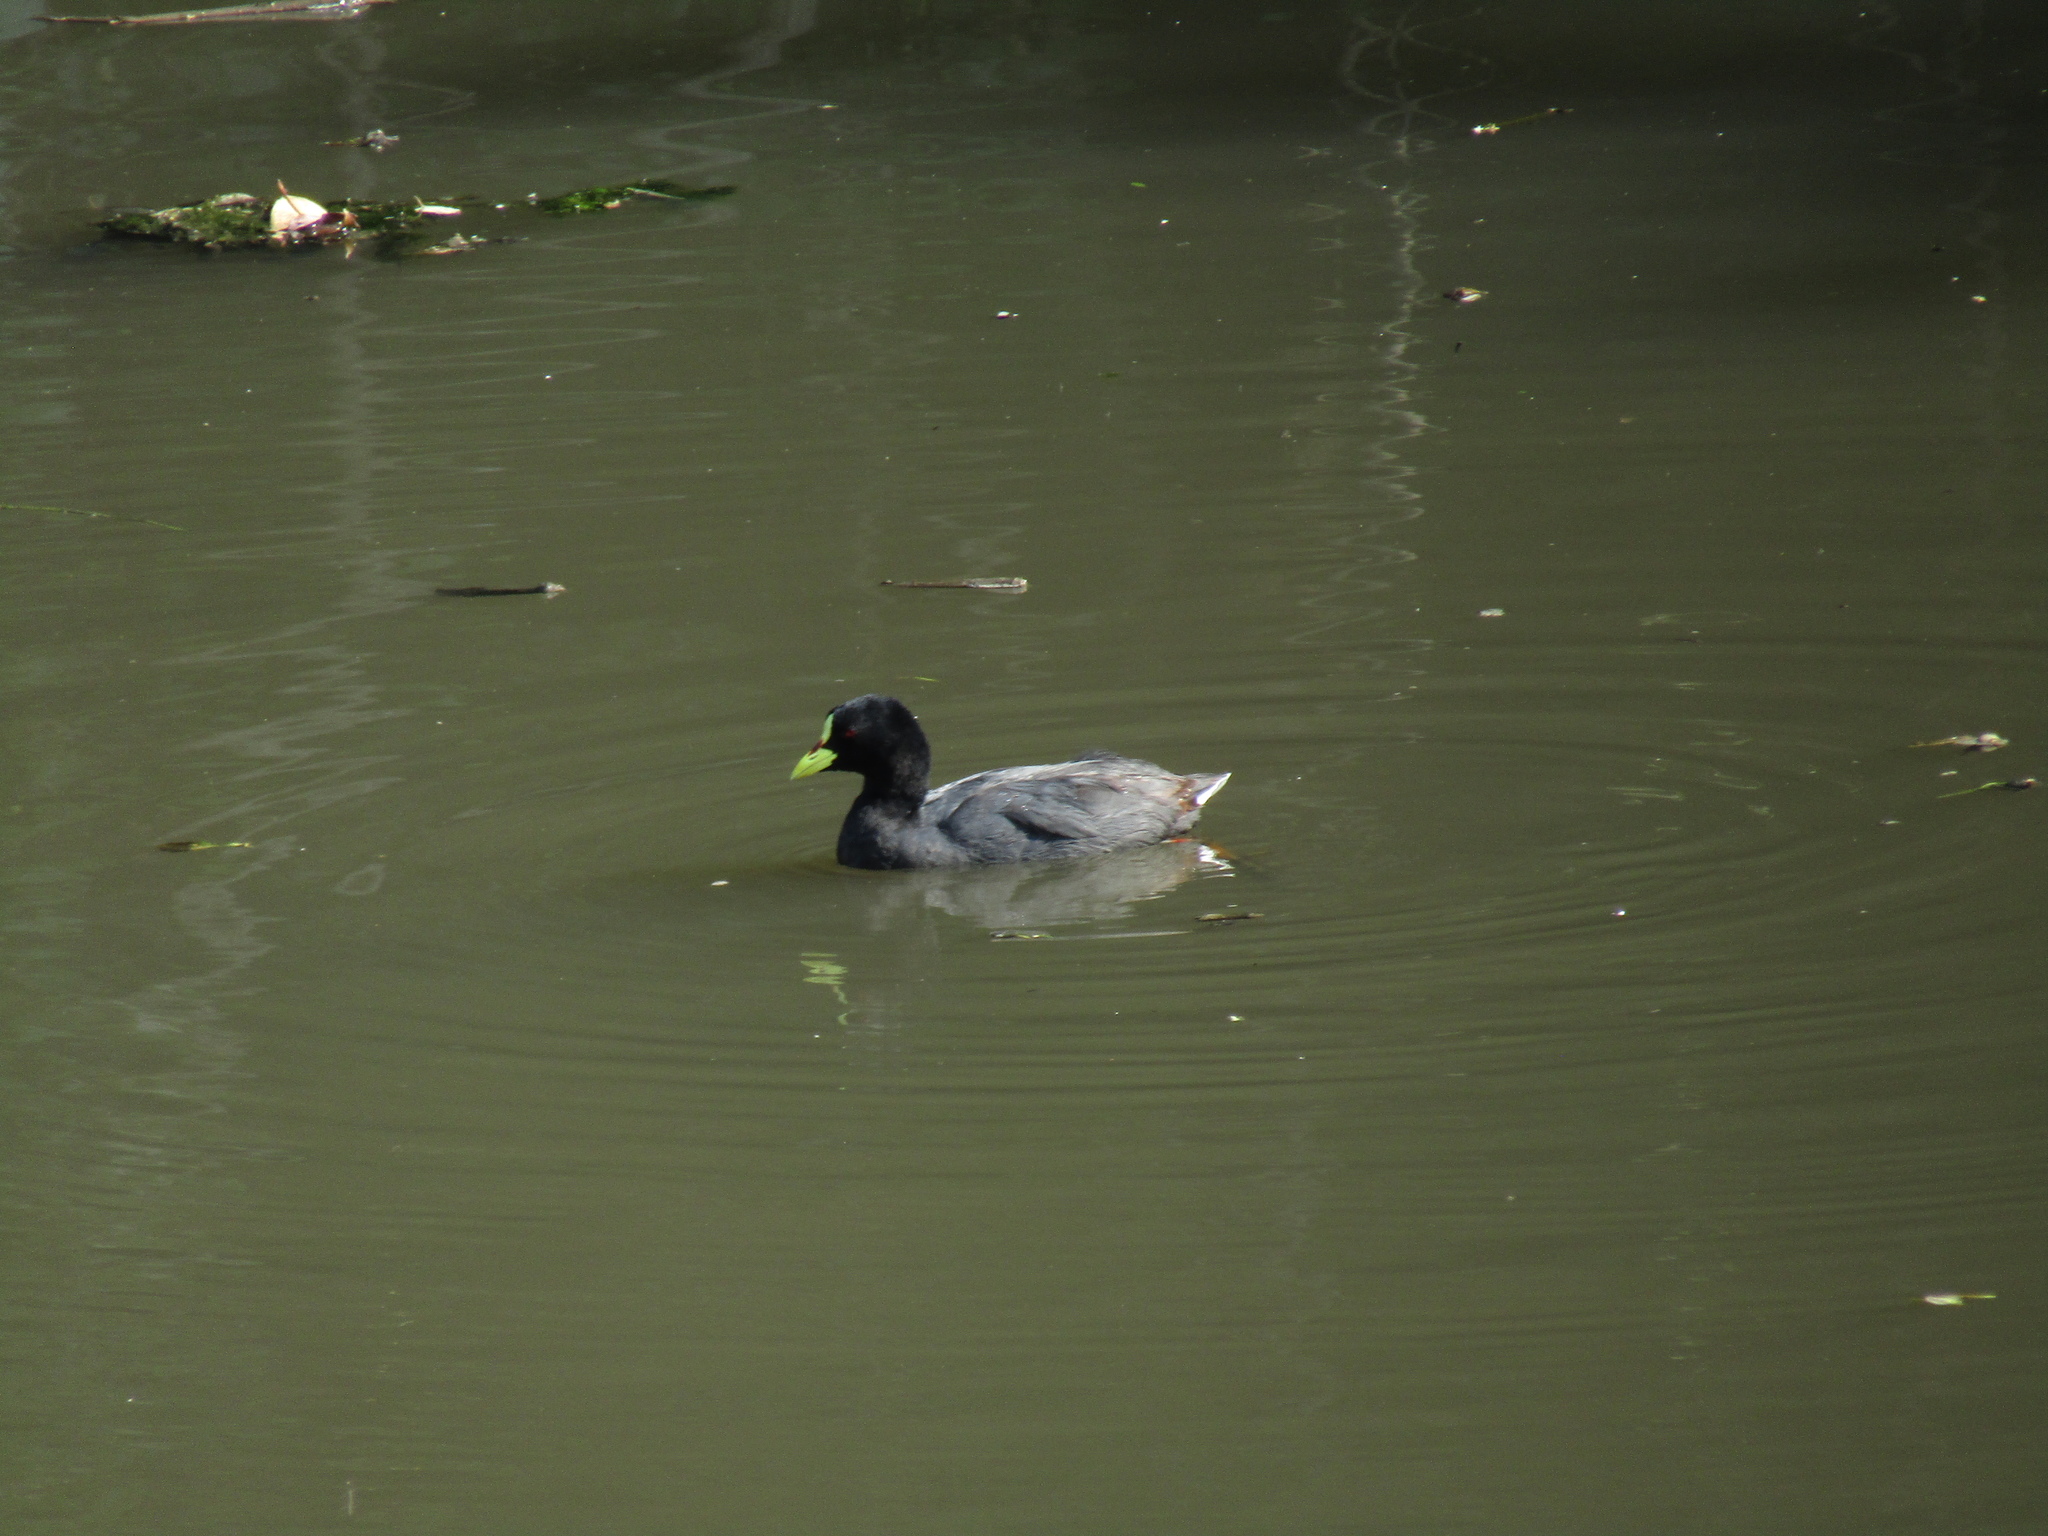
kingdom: Animalia
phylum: Chordata
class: Aves
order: Gruiformes
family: Rallidae
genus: Fulica
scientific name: Fulica armillata
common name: Red-gartered coot
